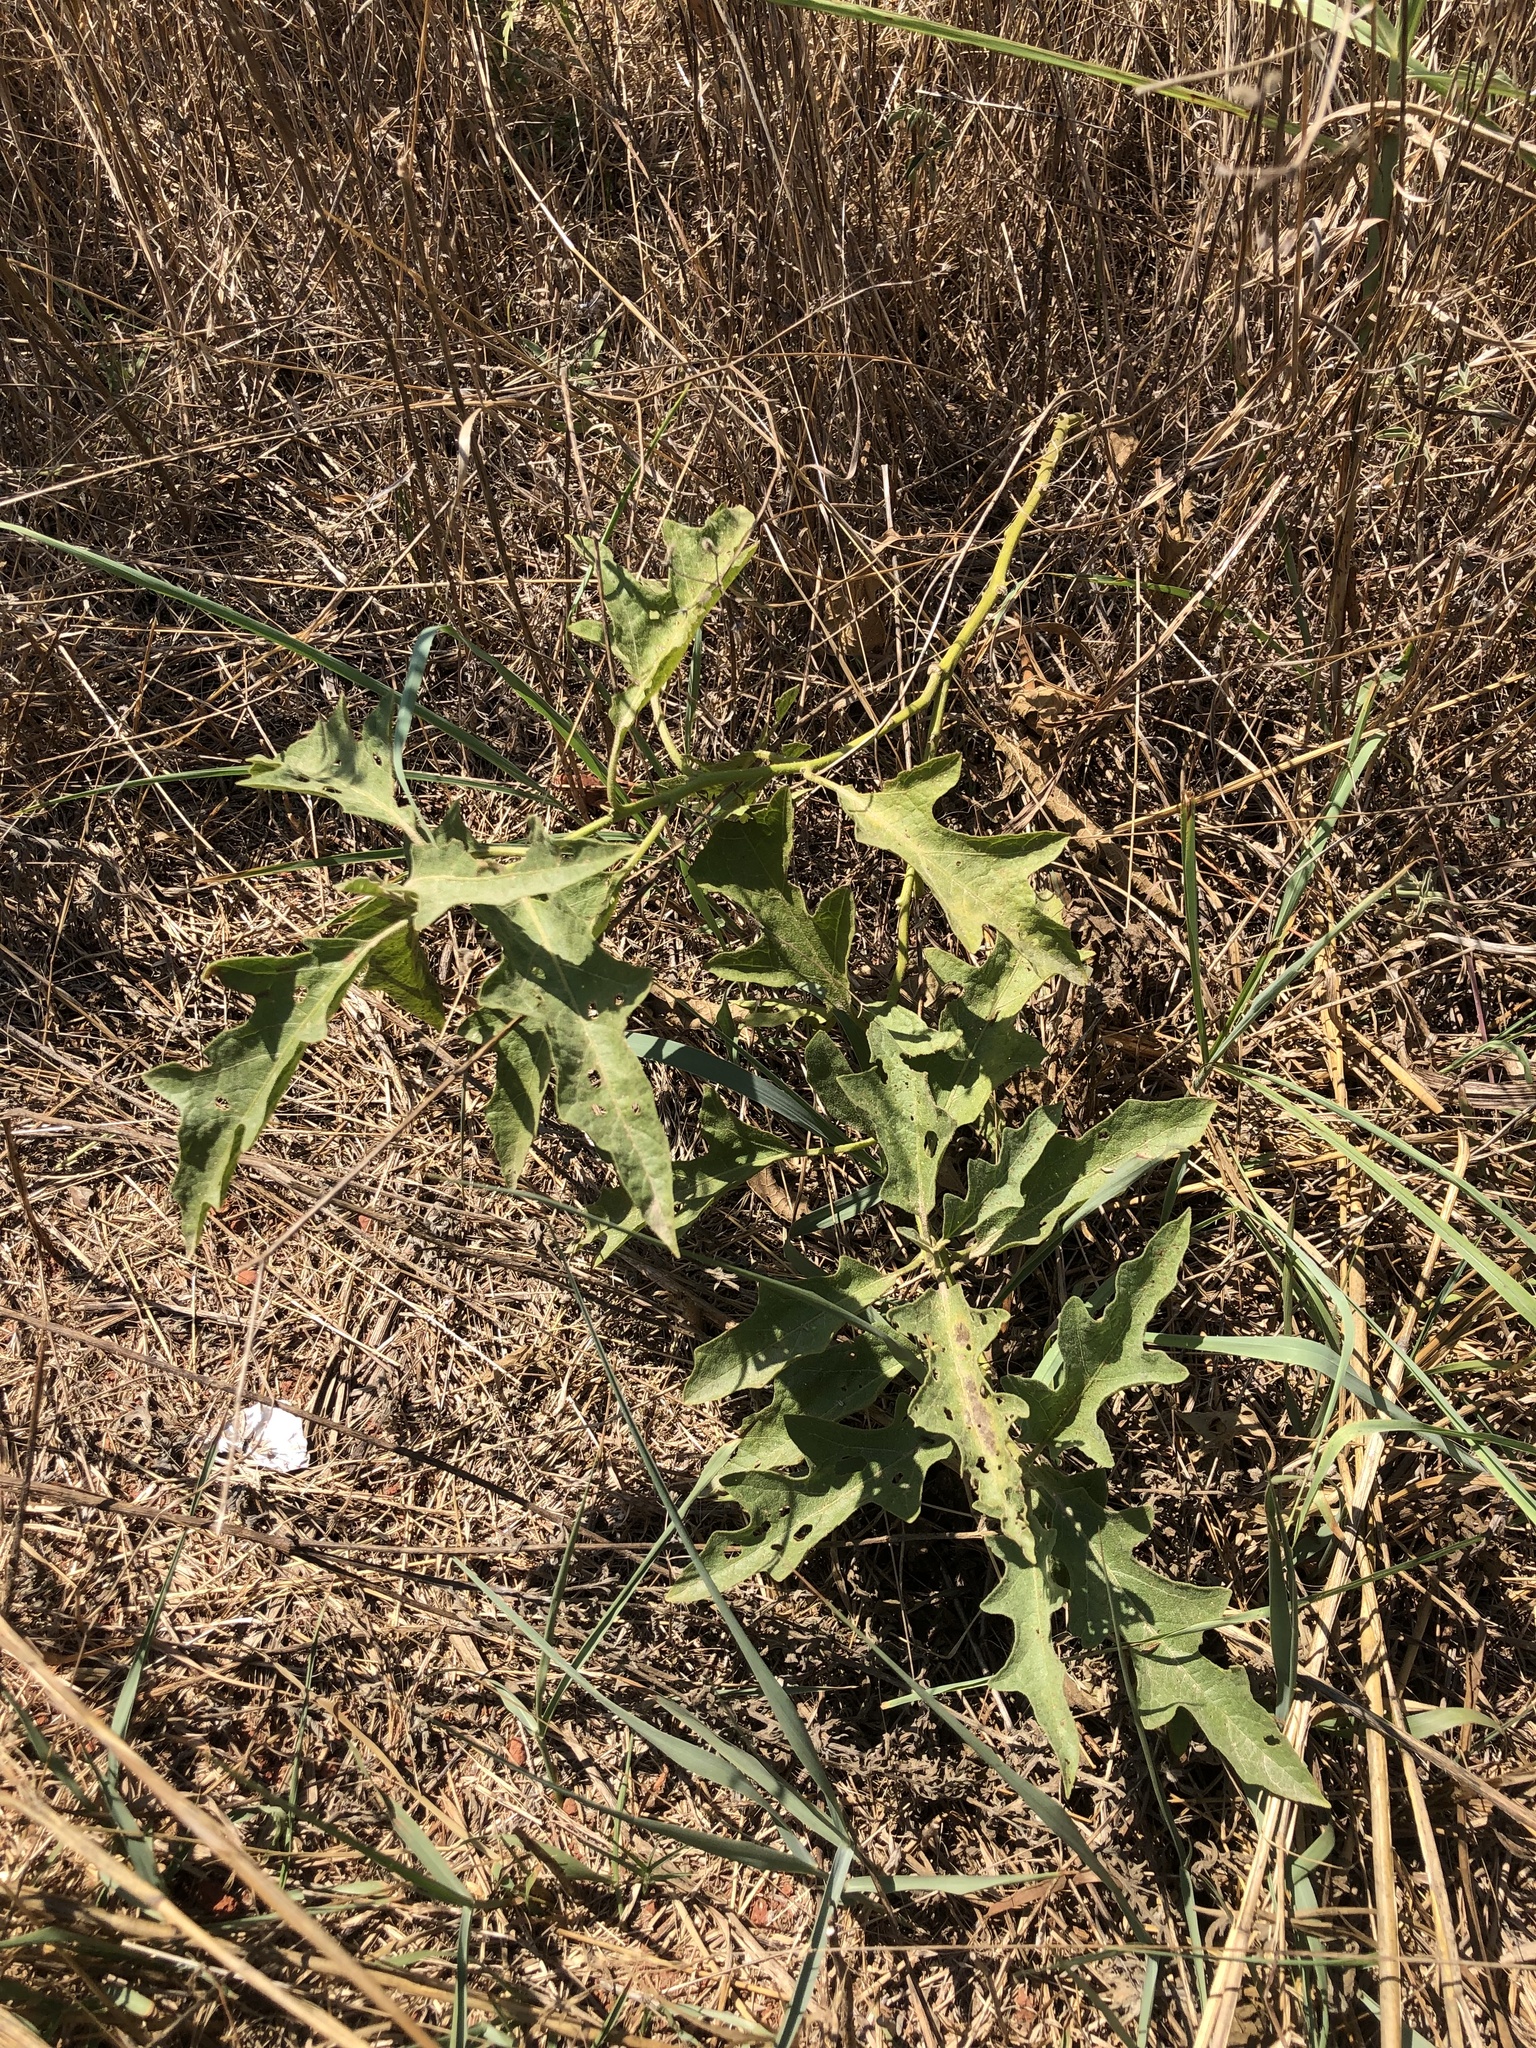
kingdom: Plantae
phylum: Tracheophyta
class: Magnoliopsida
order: Solanales
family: Solanaceae
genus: Solanum
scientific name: Solanum dimidiatum
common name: Carolina horse-nettle
